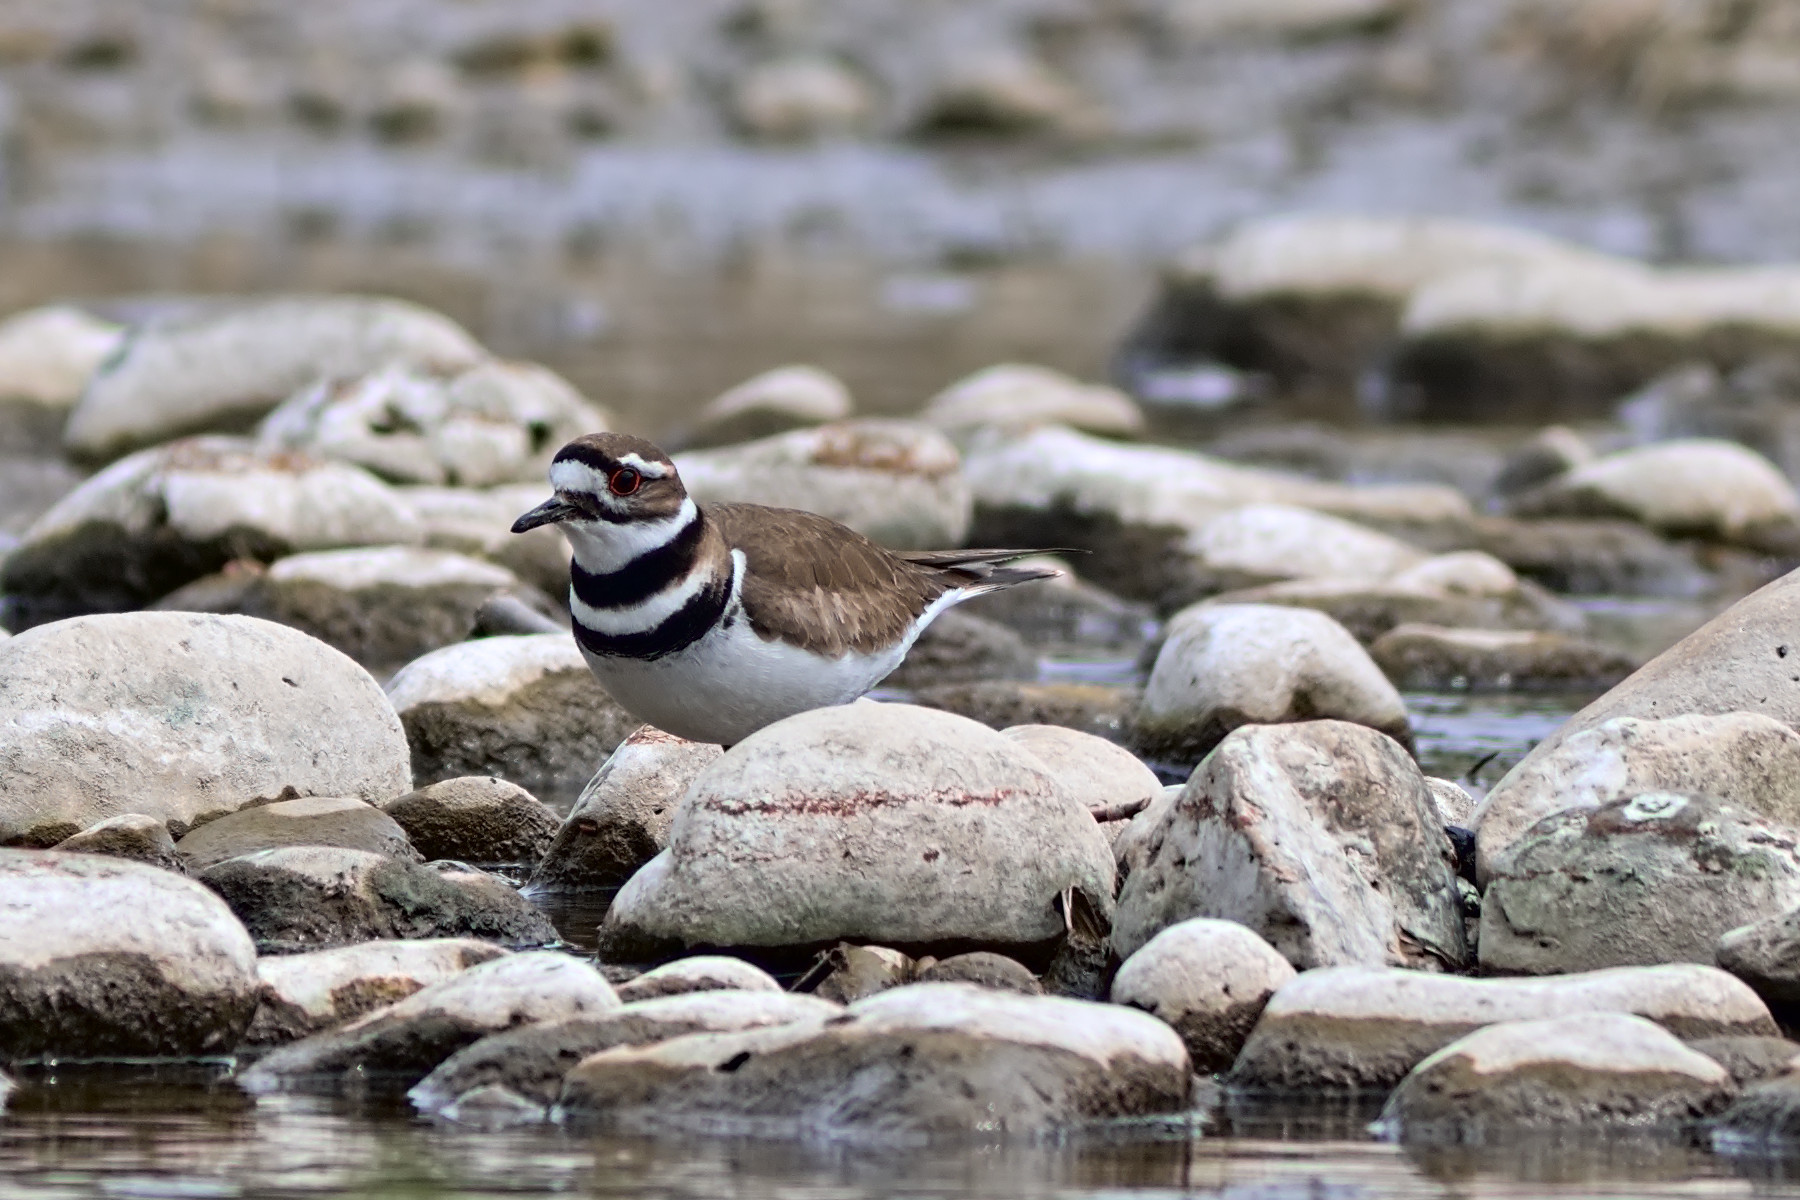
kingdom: Animalia
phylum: Chordata
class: Aves
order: Charadriiformes
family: Charadriidae
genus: Charadrius
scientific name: Charadrius vociferus
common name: Killdeer
